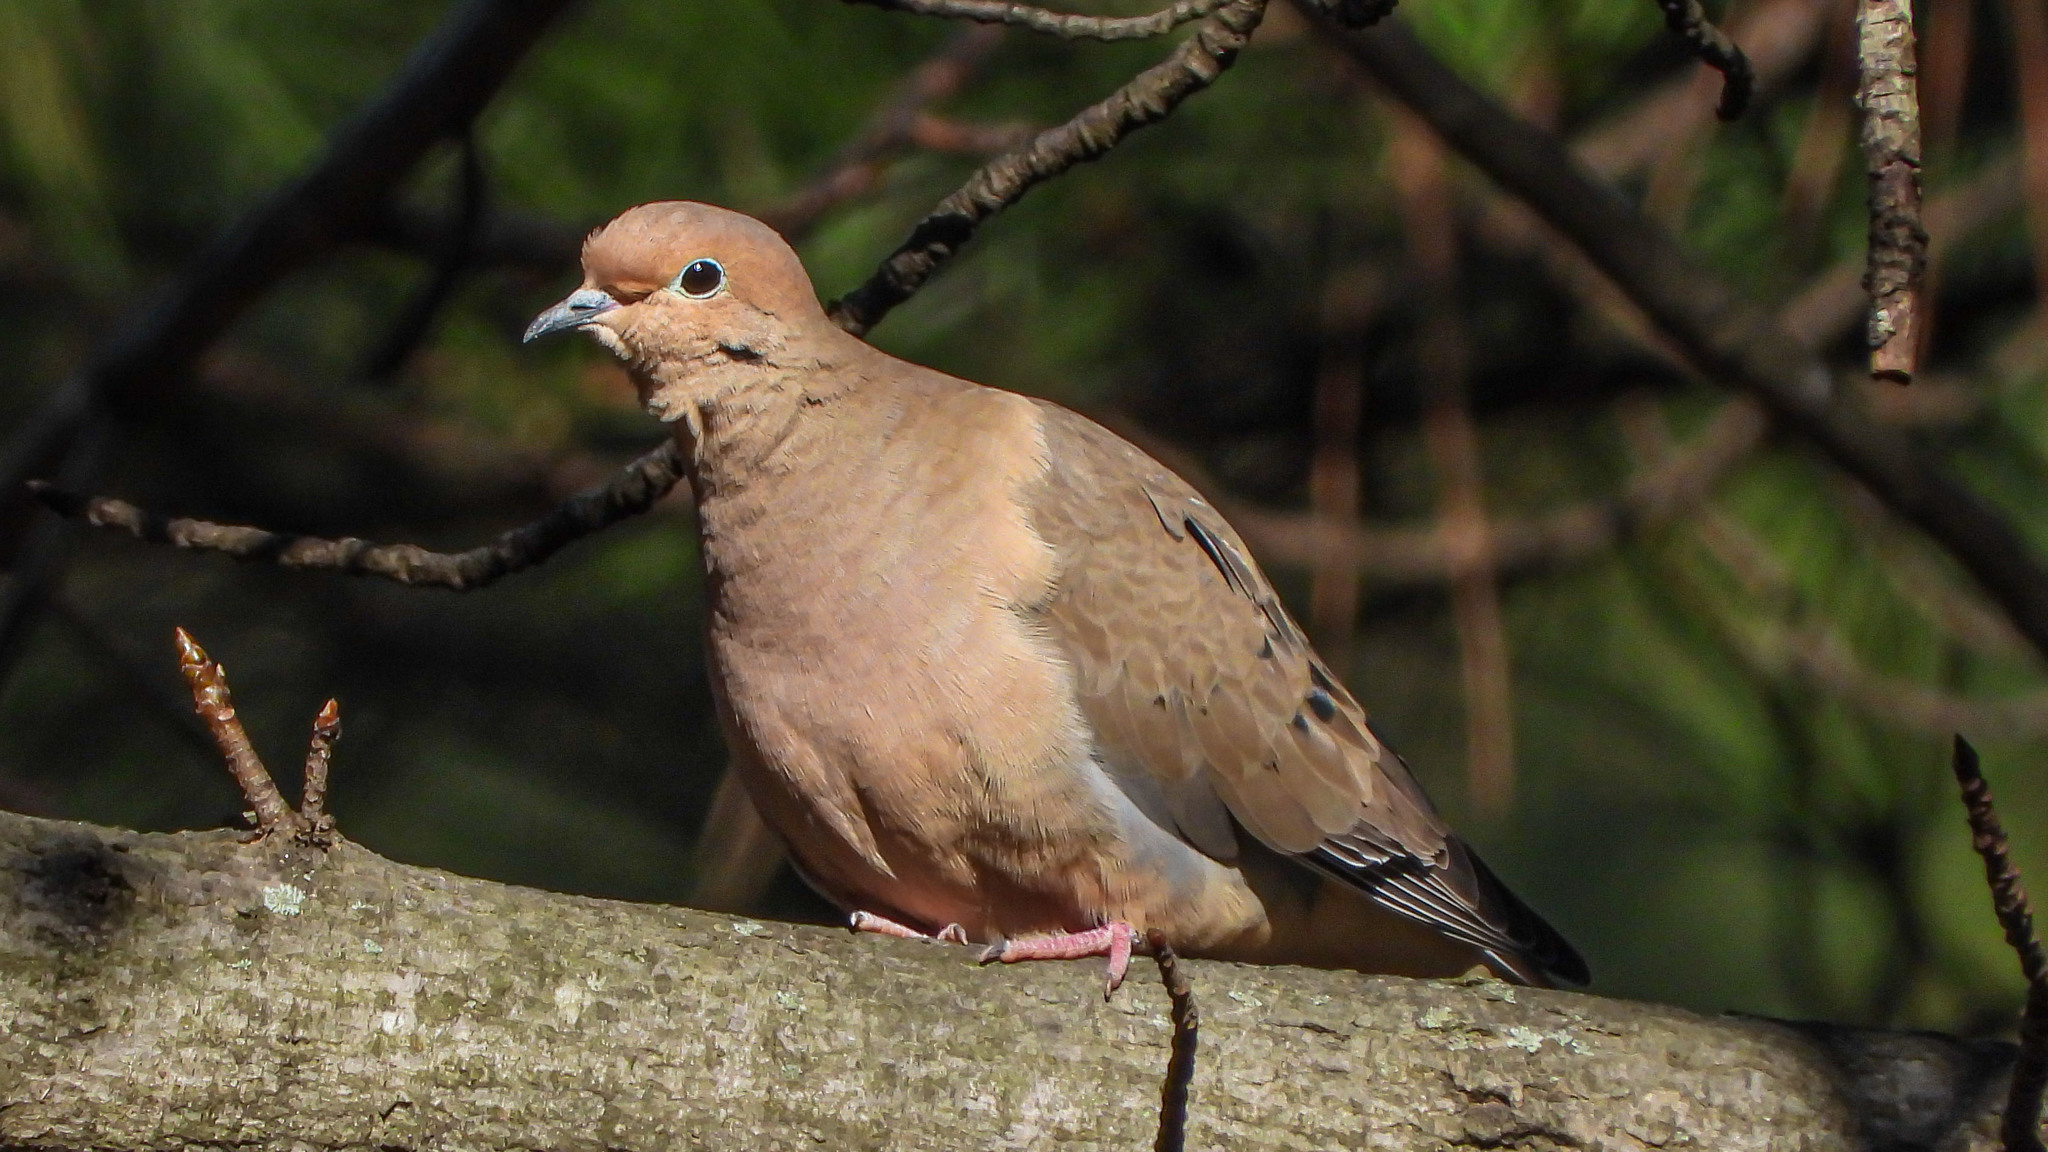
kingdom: Animalia
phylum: Chordata
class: Aves
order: Columbiformes
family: Columbidae
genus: Zenaida
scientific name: Zenaida macroura
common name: Mourning dove
